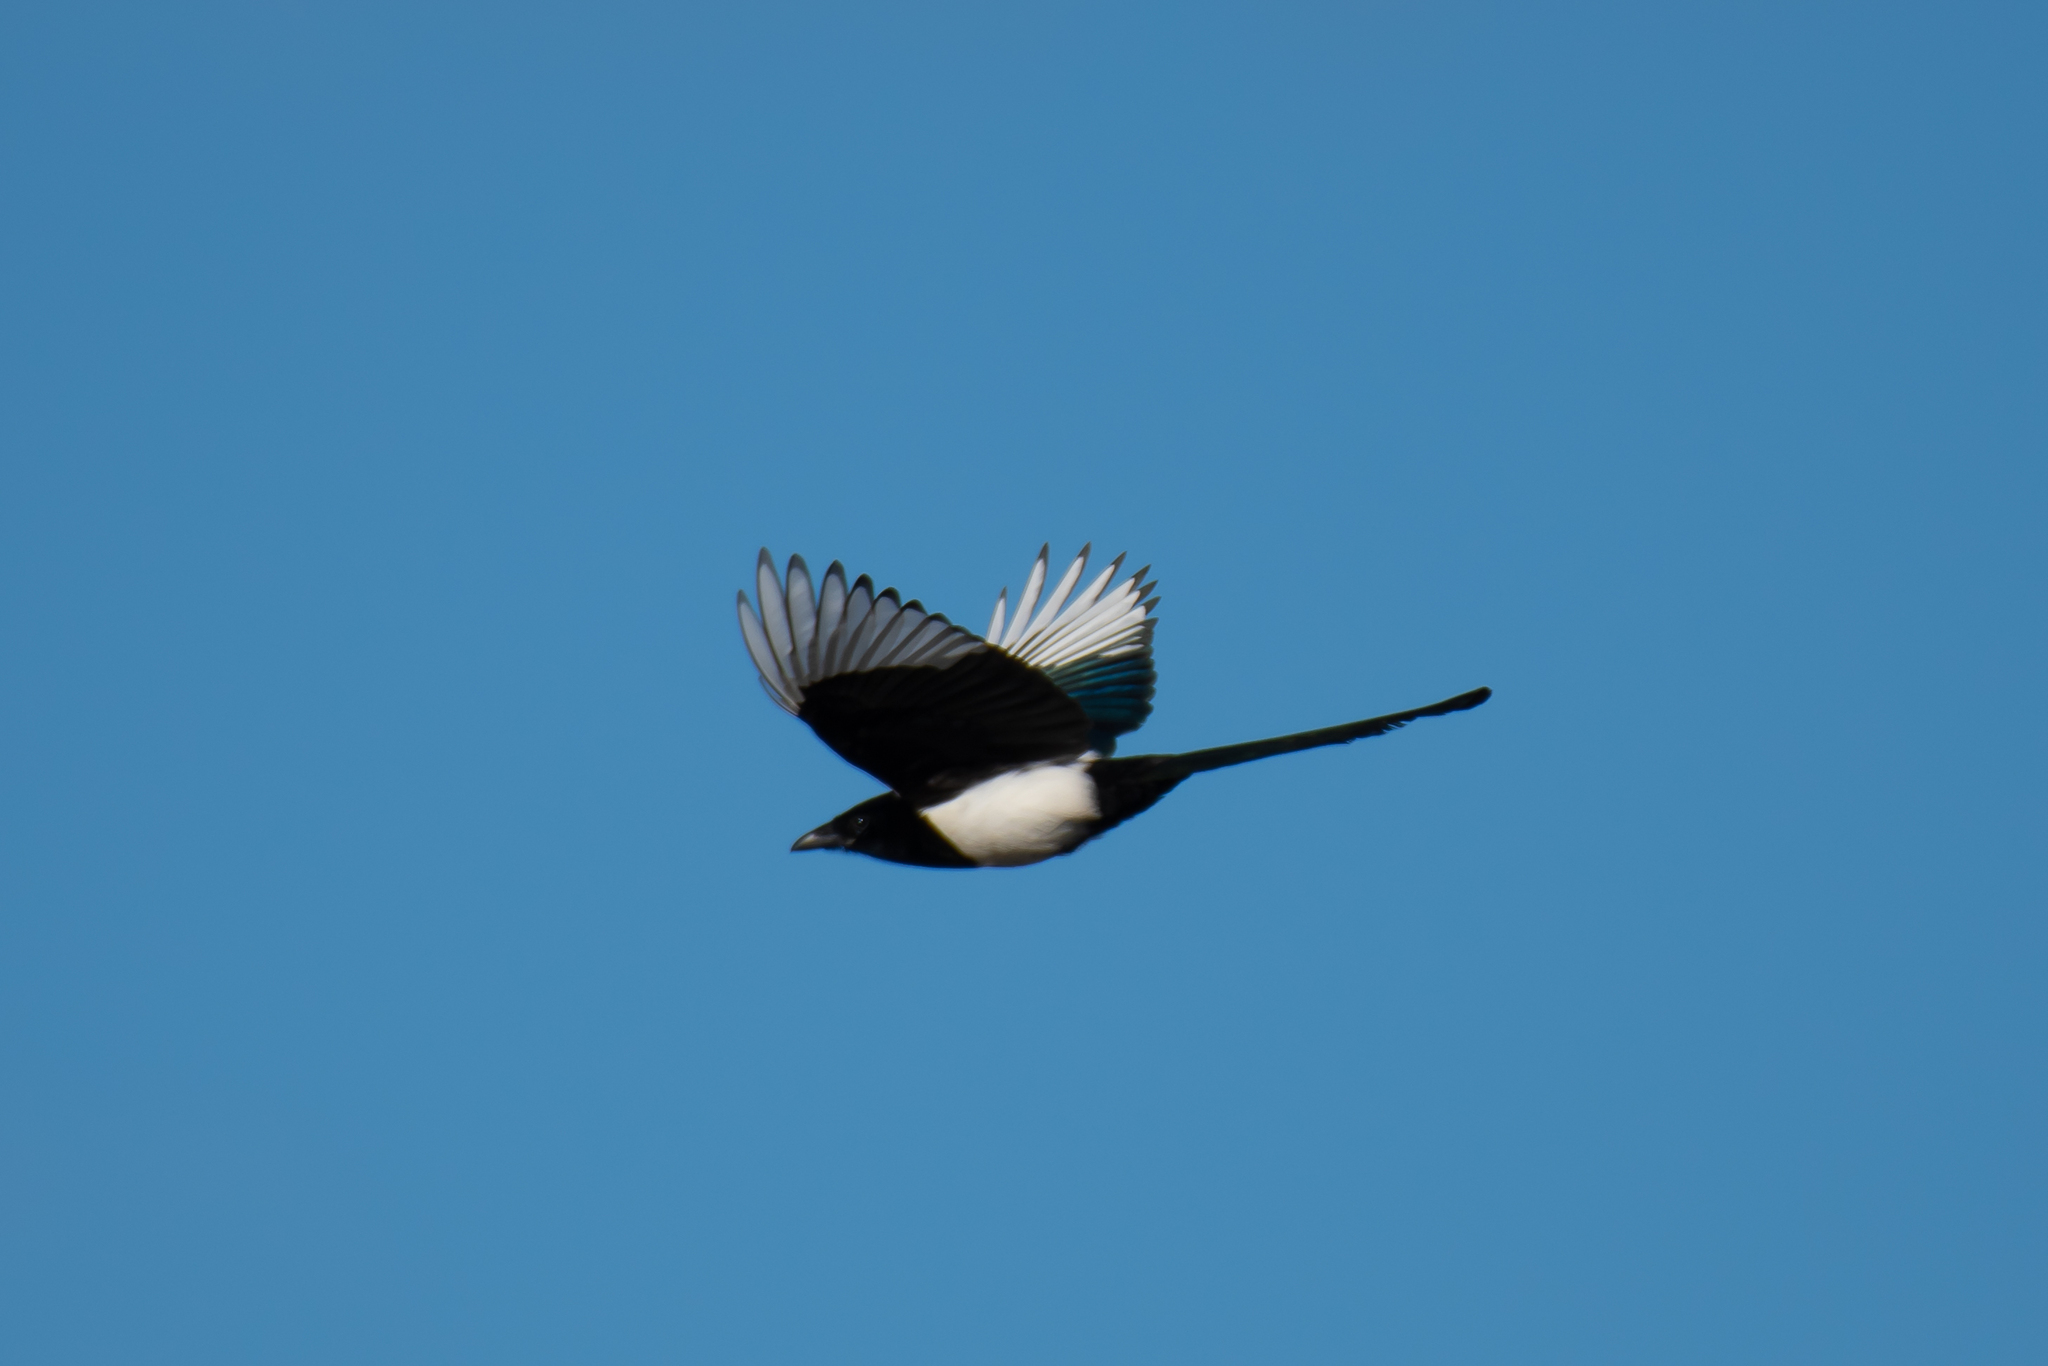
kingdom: Animalia
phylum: Chordata
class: Aves
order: Passeriformes
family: Corvidae
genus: Pica
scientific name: Pica pica
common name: Eurasian magpie
